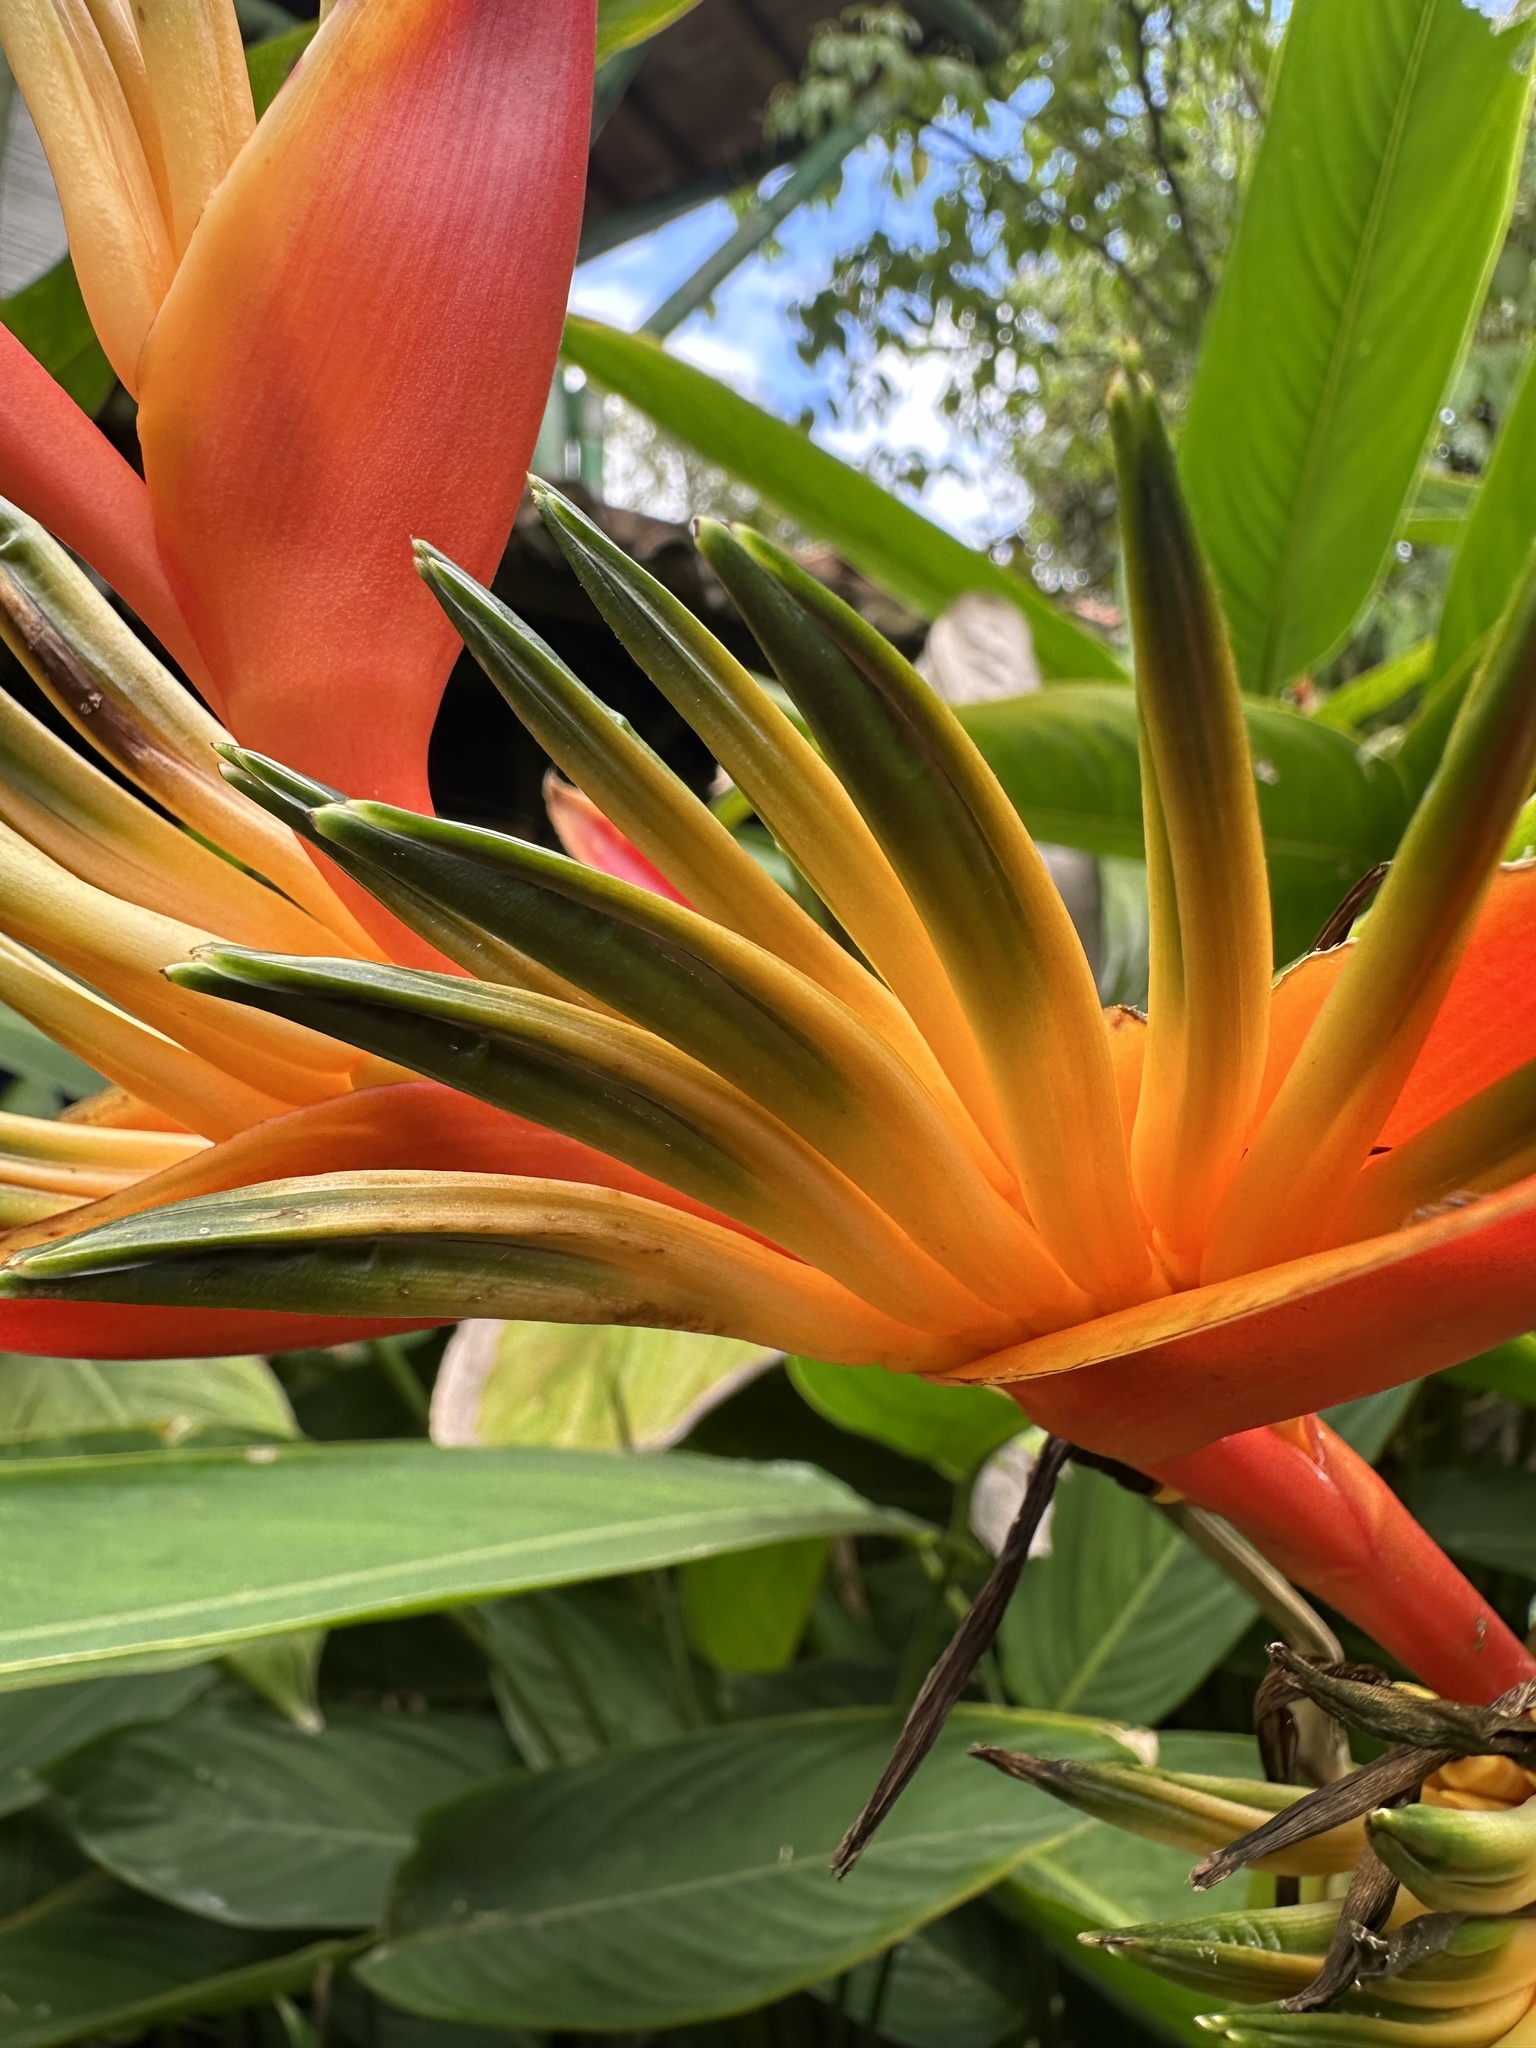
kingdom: Plantae
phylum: Tracheophyta
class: Liliopsida
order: Zingiberales
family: Heliconiaceae
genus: Heliconia
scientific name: Heliconia
